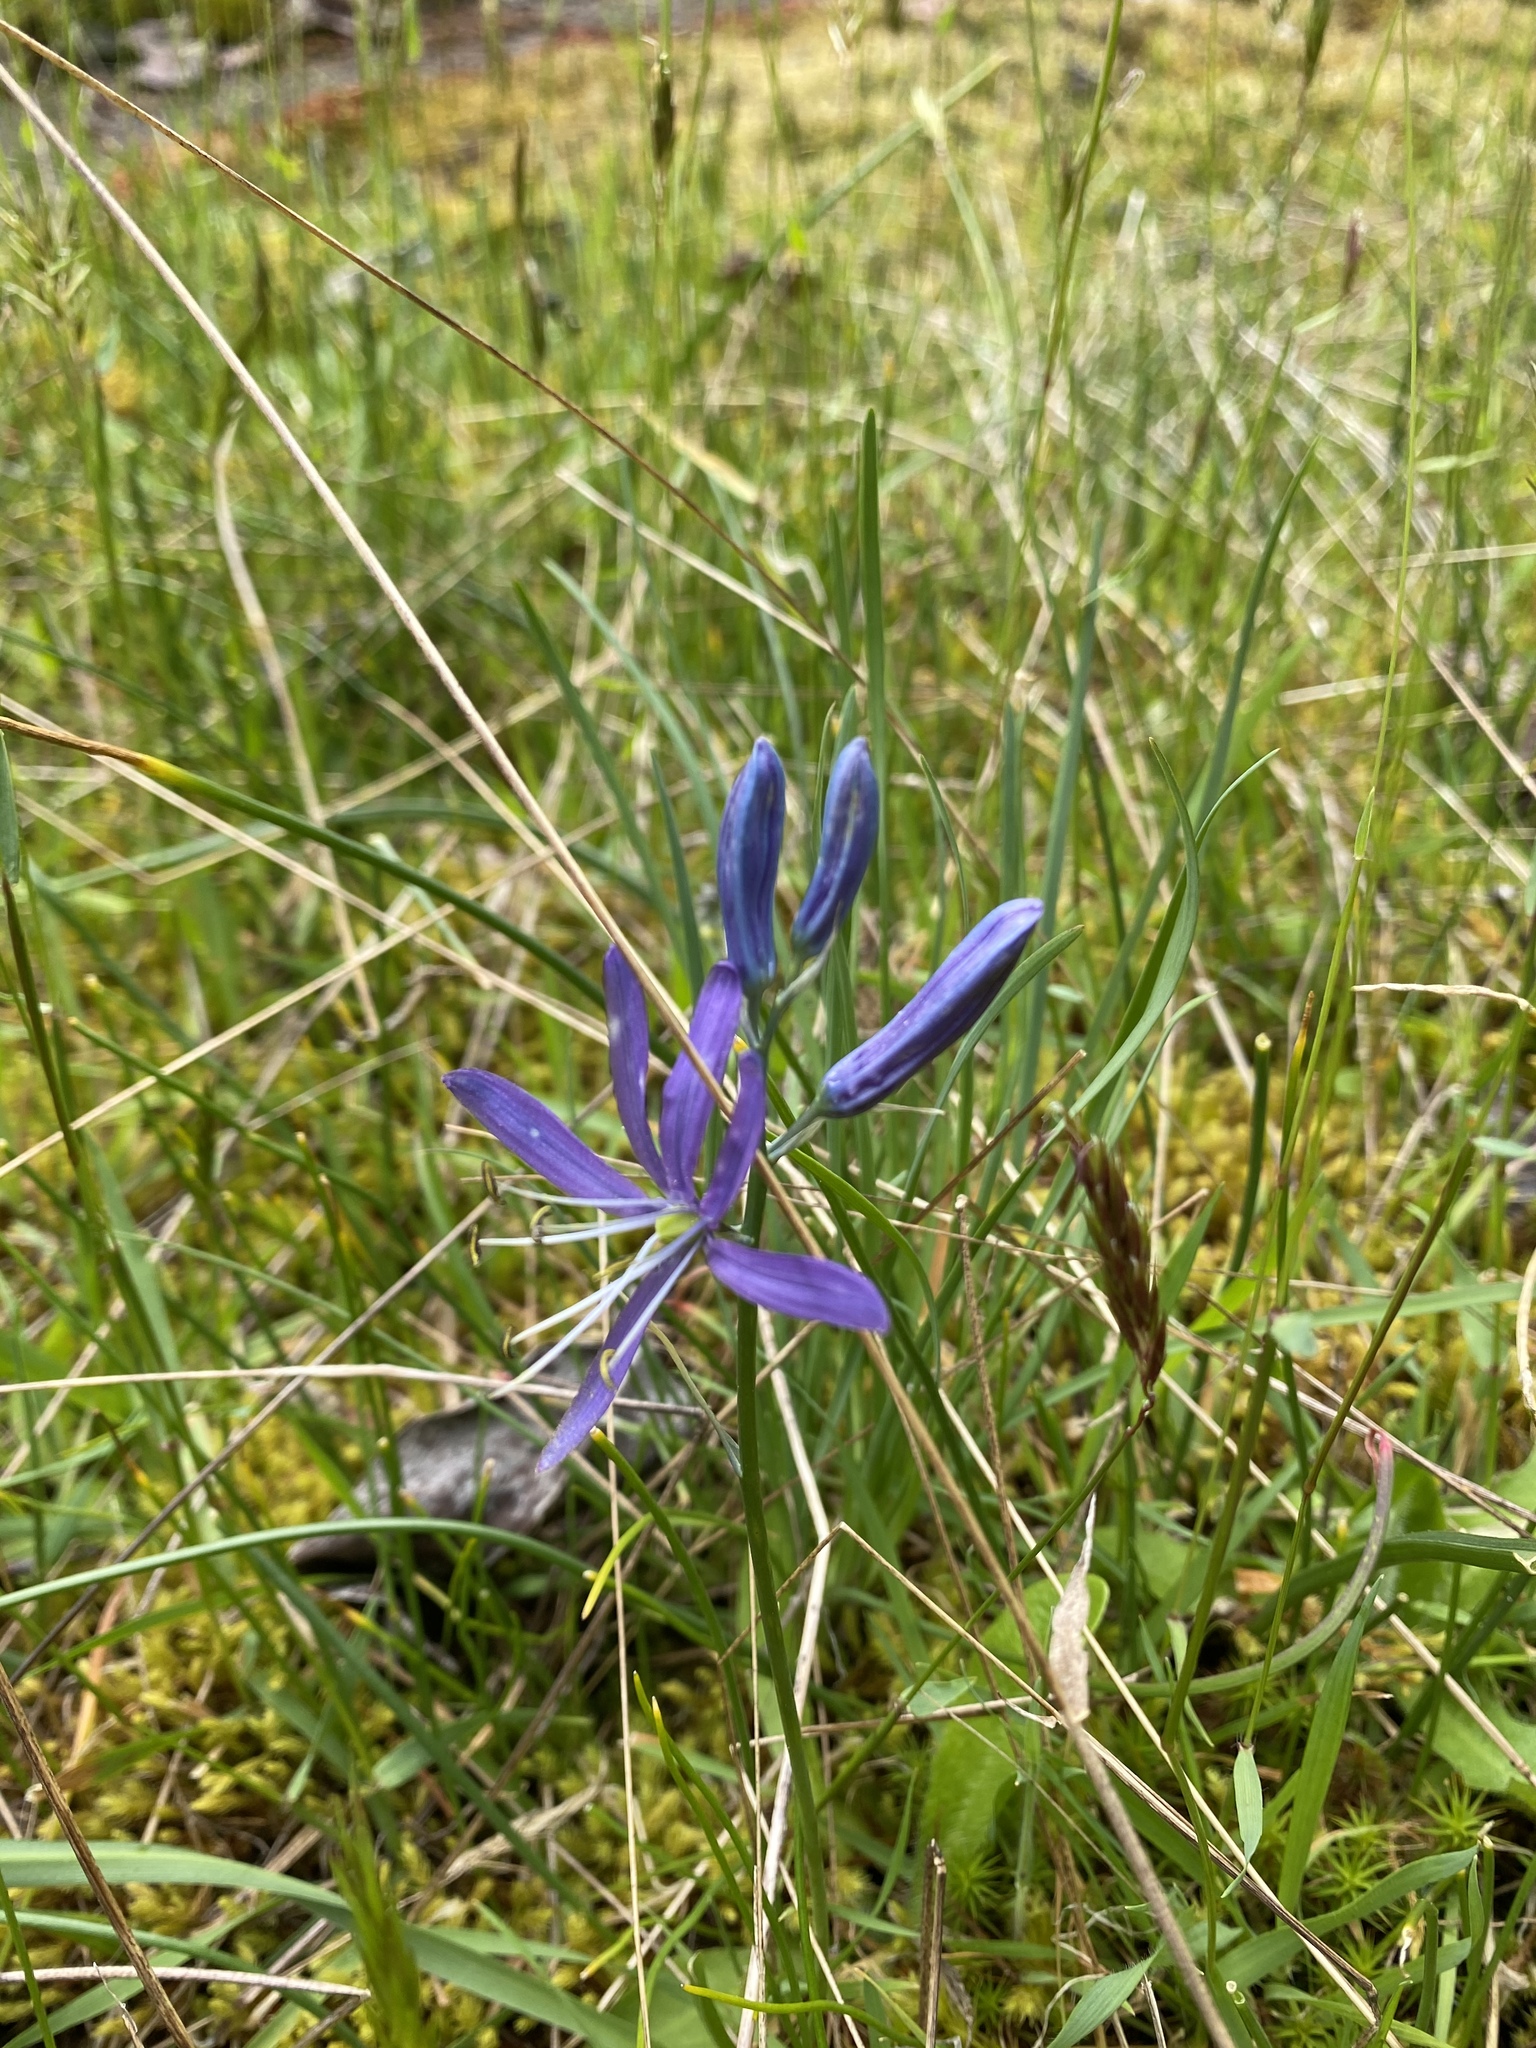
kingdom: Plantae
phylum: Tracheophyta
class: Liliopsida
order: Asparagales
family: Asparagaceae
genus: Camassia
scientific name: Camassia quamash
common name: Common camas
